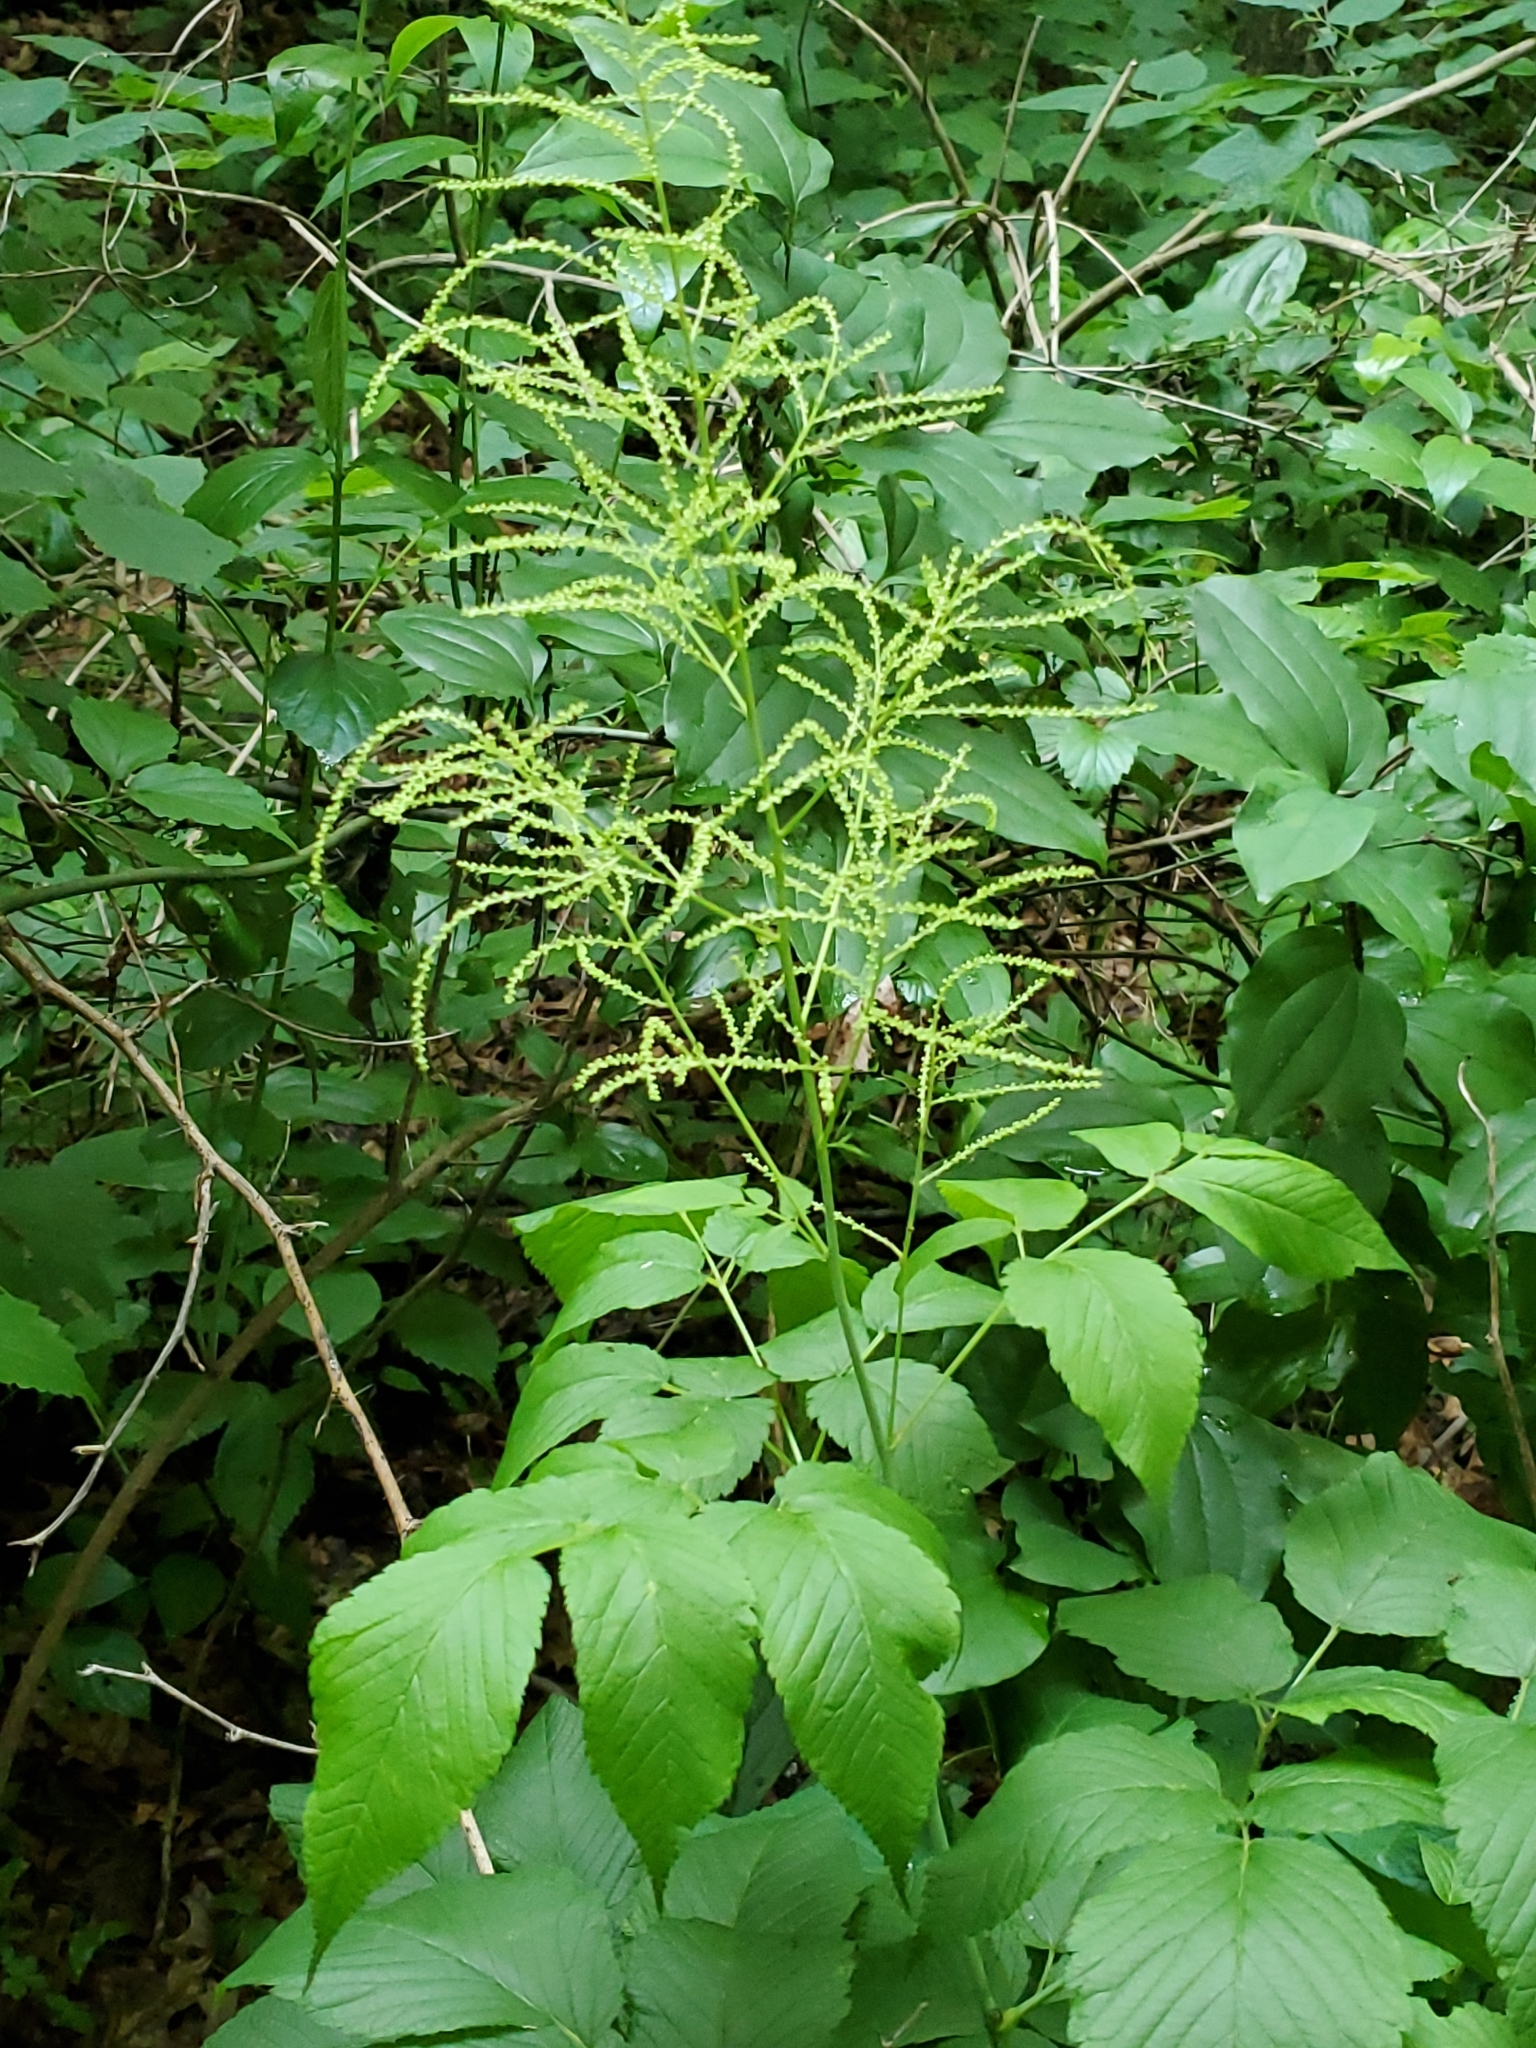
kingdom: Plantae
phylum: Tracheophyta
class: Magnoliopsida
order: Rosales
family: Rosaceae
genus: Aruncus
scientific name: Aruncus dioicus
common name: Buck's-beard
